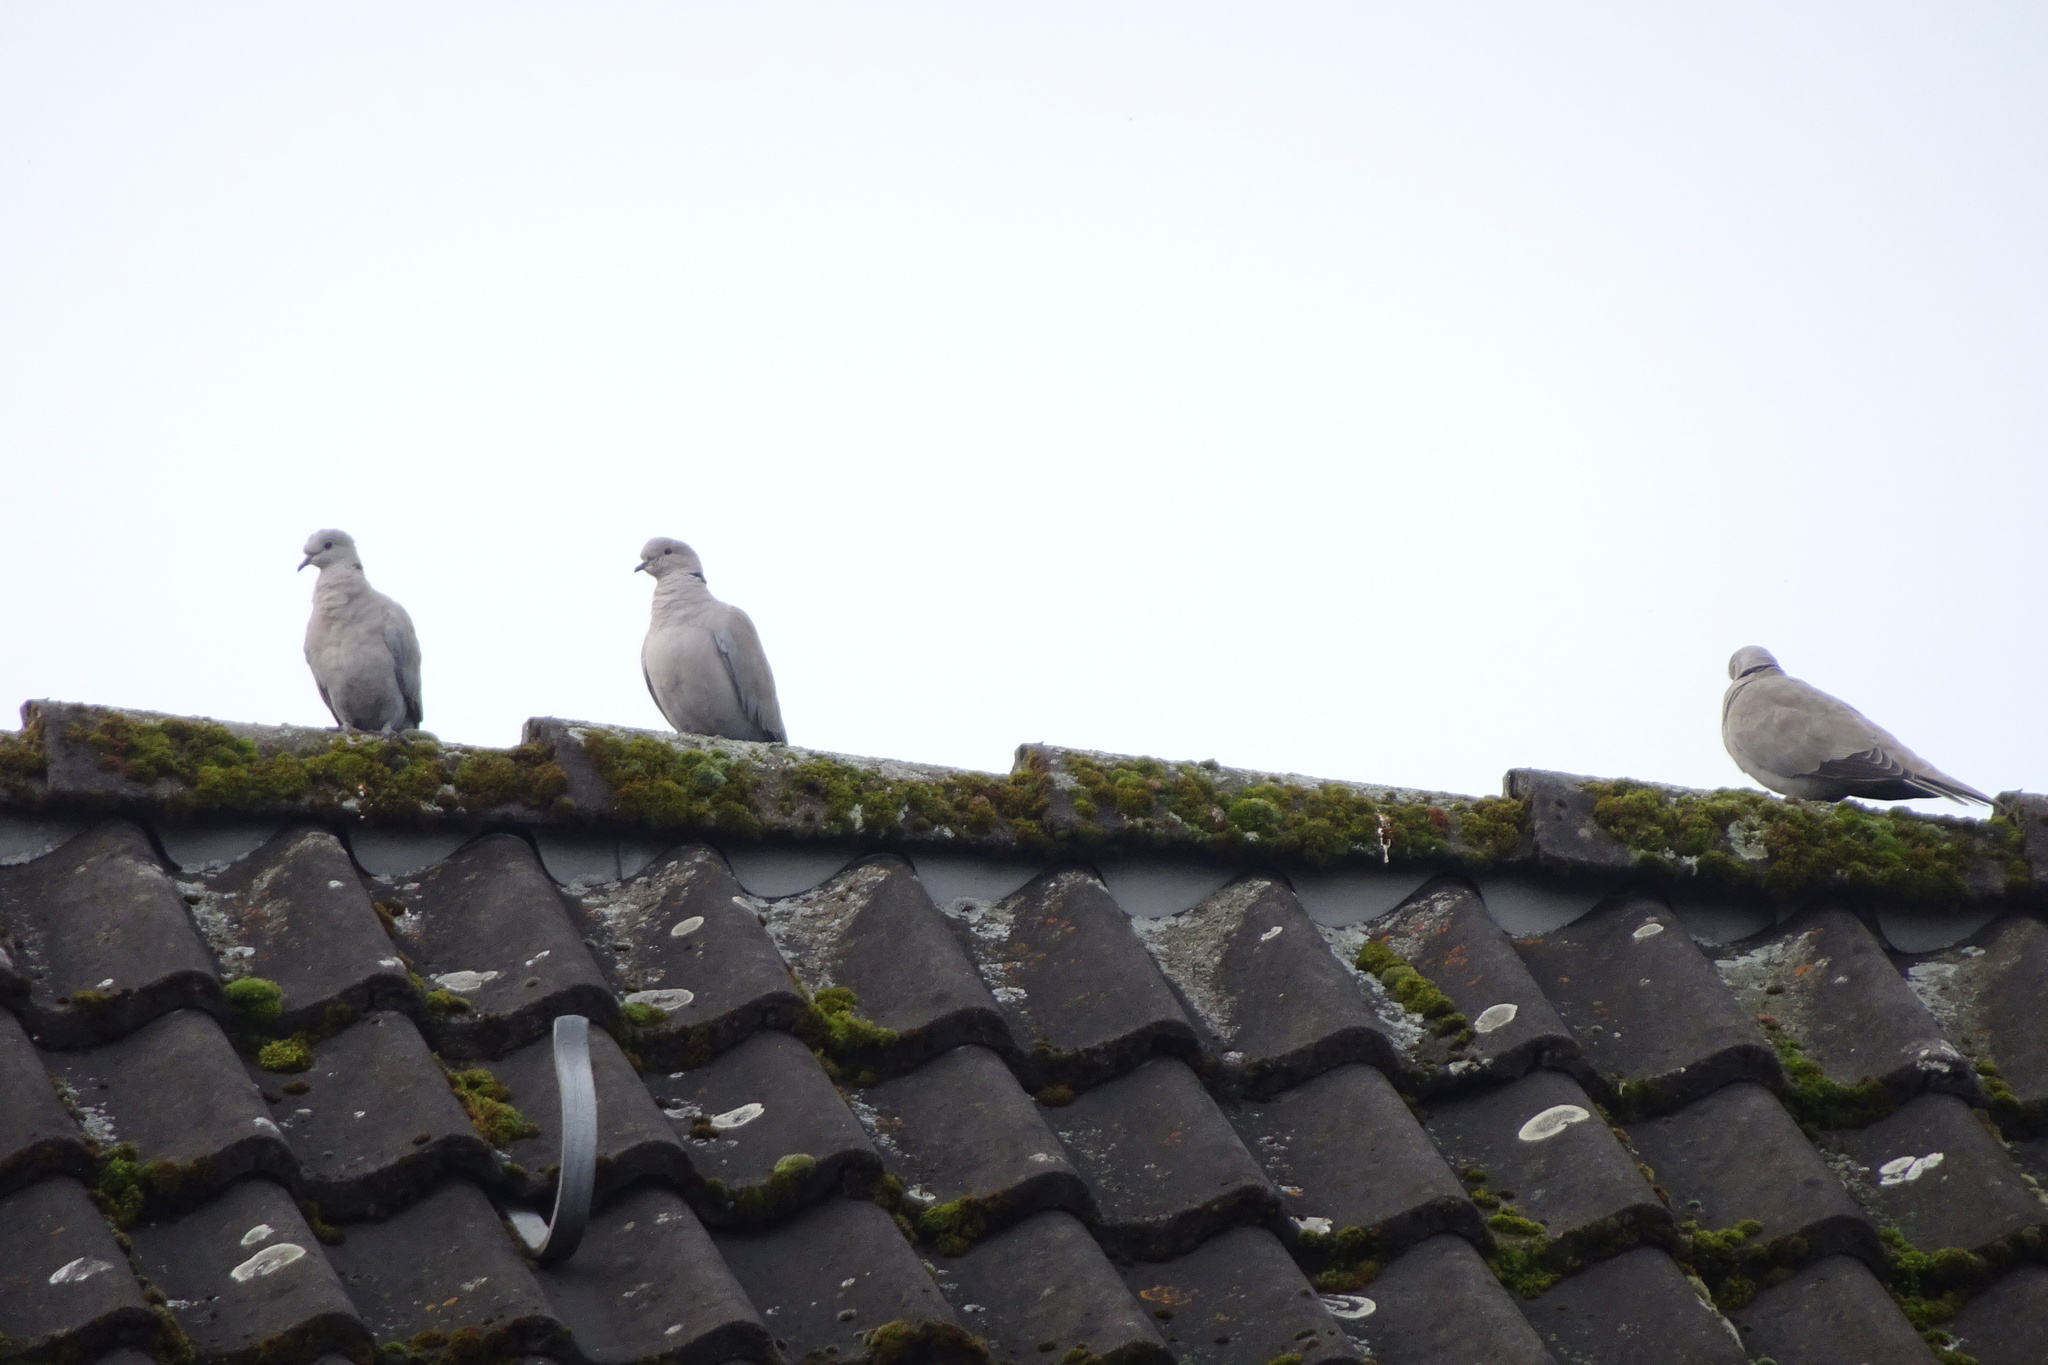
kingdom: Animalia
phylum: Chordata
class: Aves
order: Columbiformes
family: Columbidae
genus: Streptopelia
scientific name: Streptopelia decaocto
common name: Eurasian collared dove
